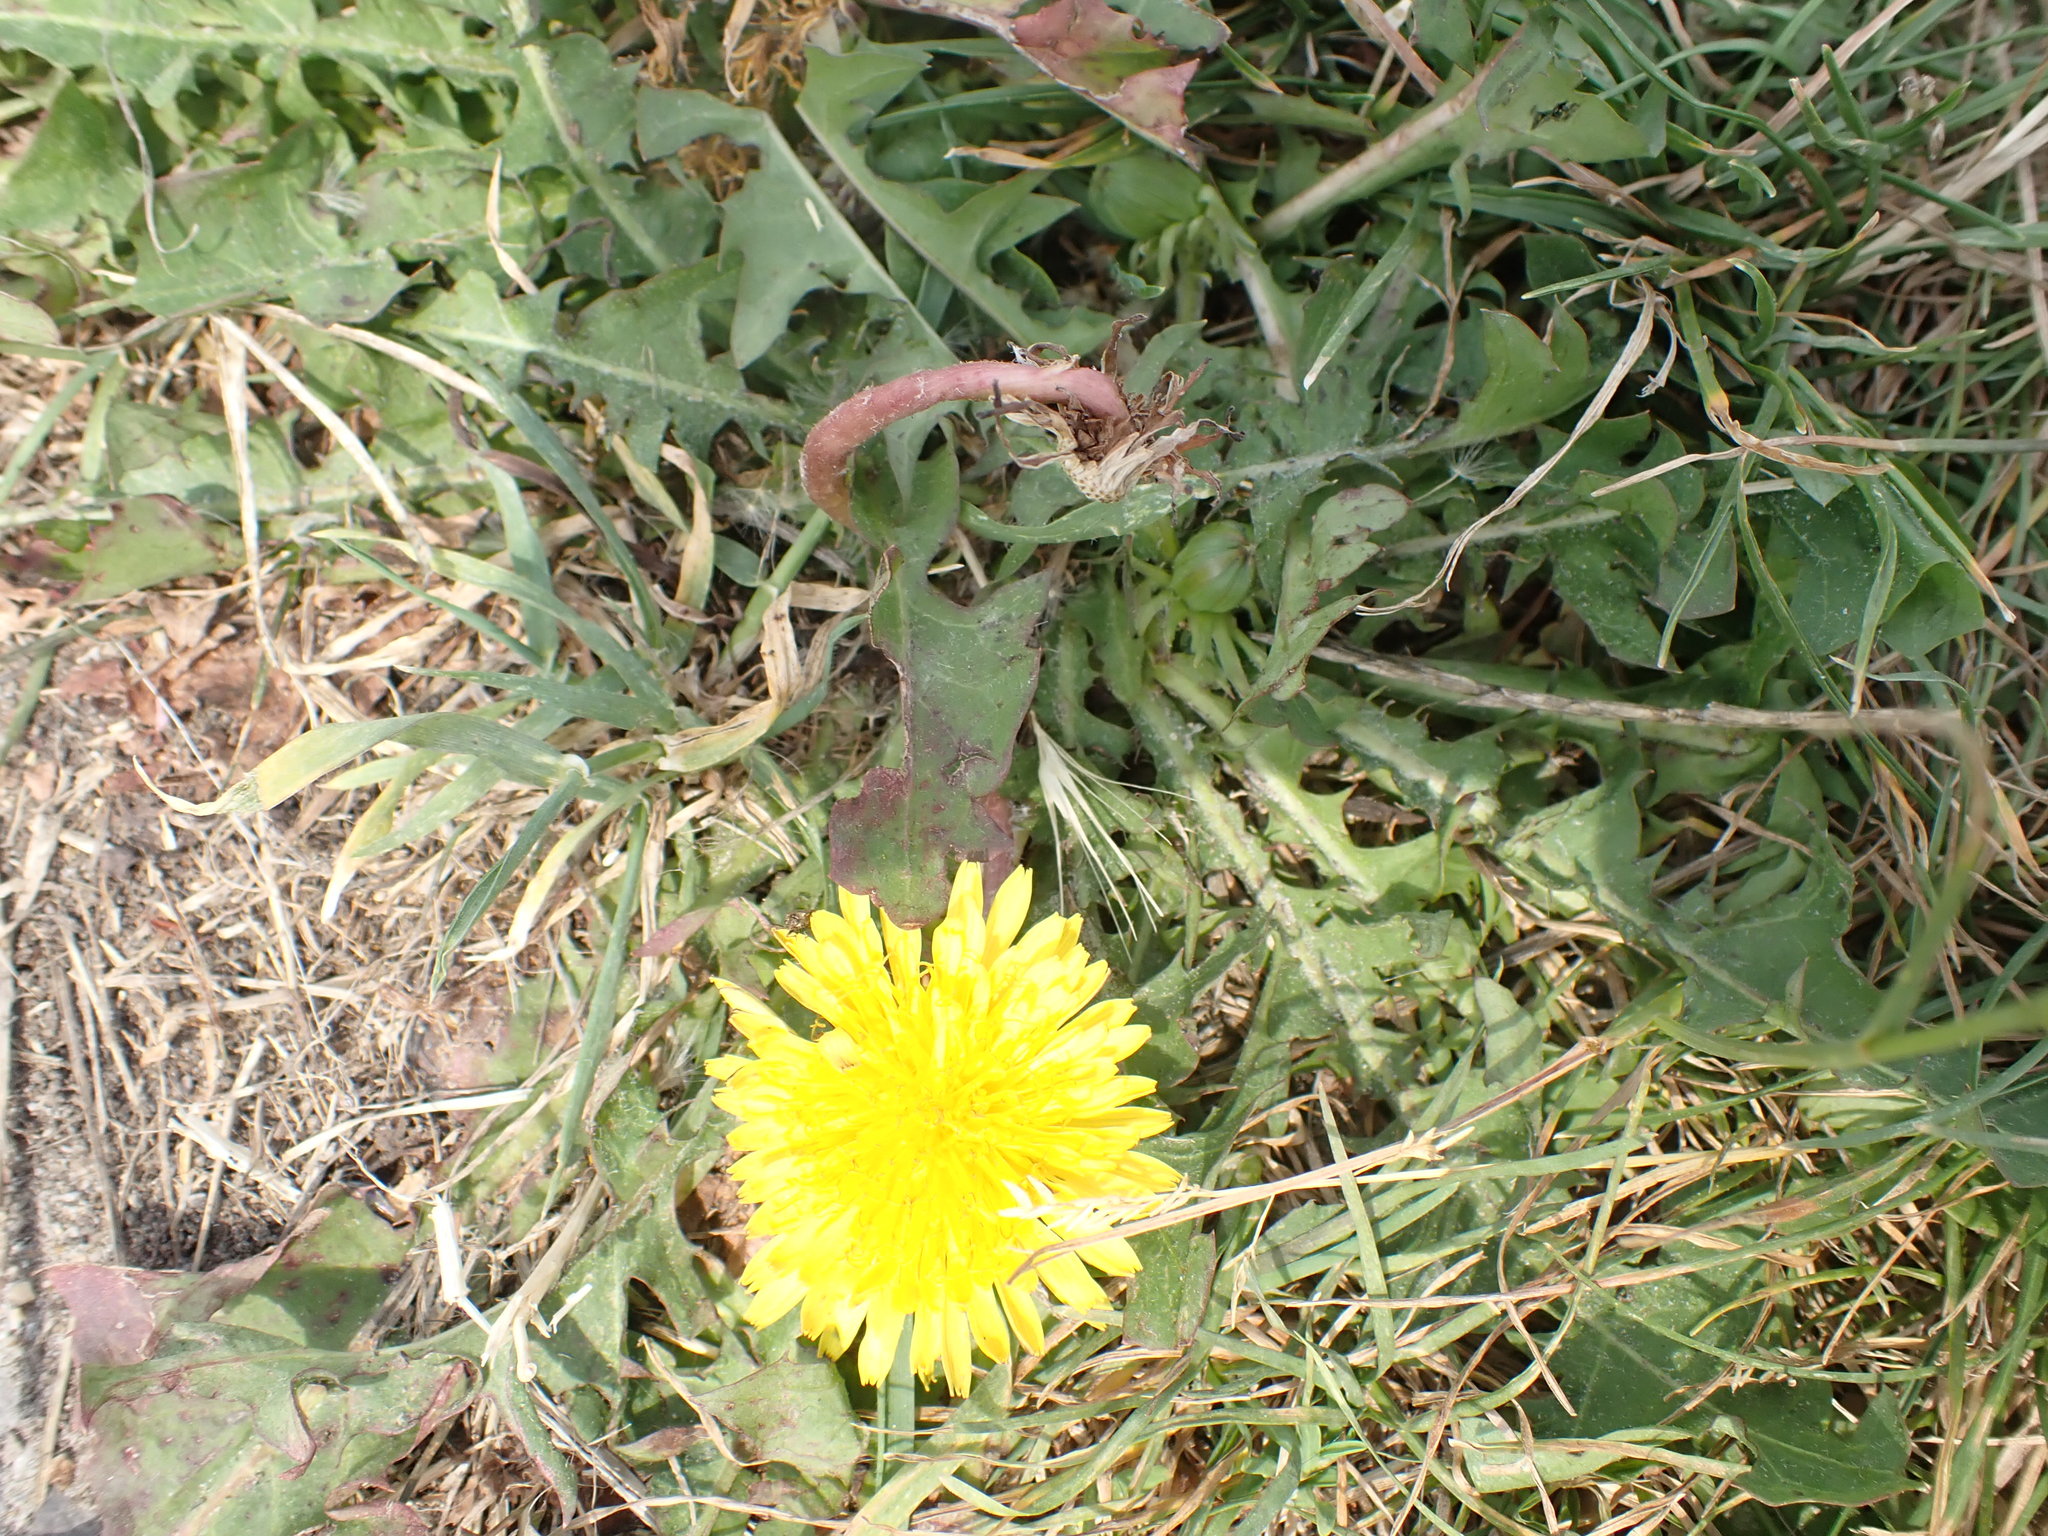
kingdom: Plantae
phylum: Tracheophyta
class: Magnoliopsida
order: Asterales
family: Asteraceae
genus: Taraxacum
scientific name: Taraxacum officinale
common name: Common dandelion
